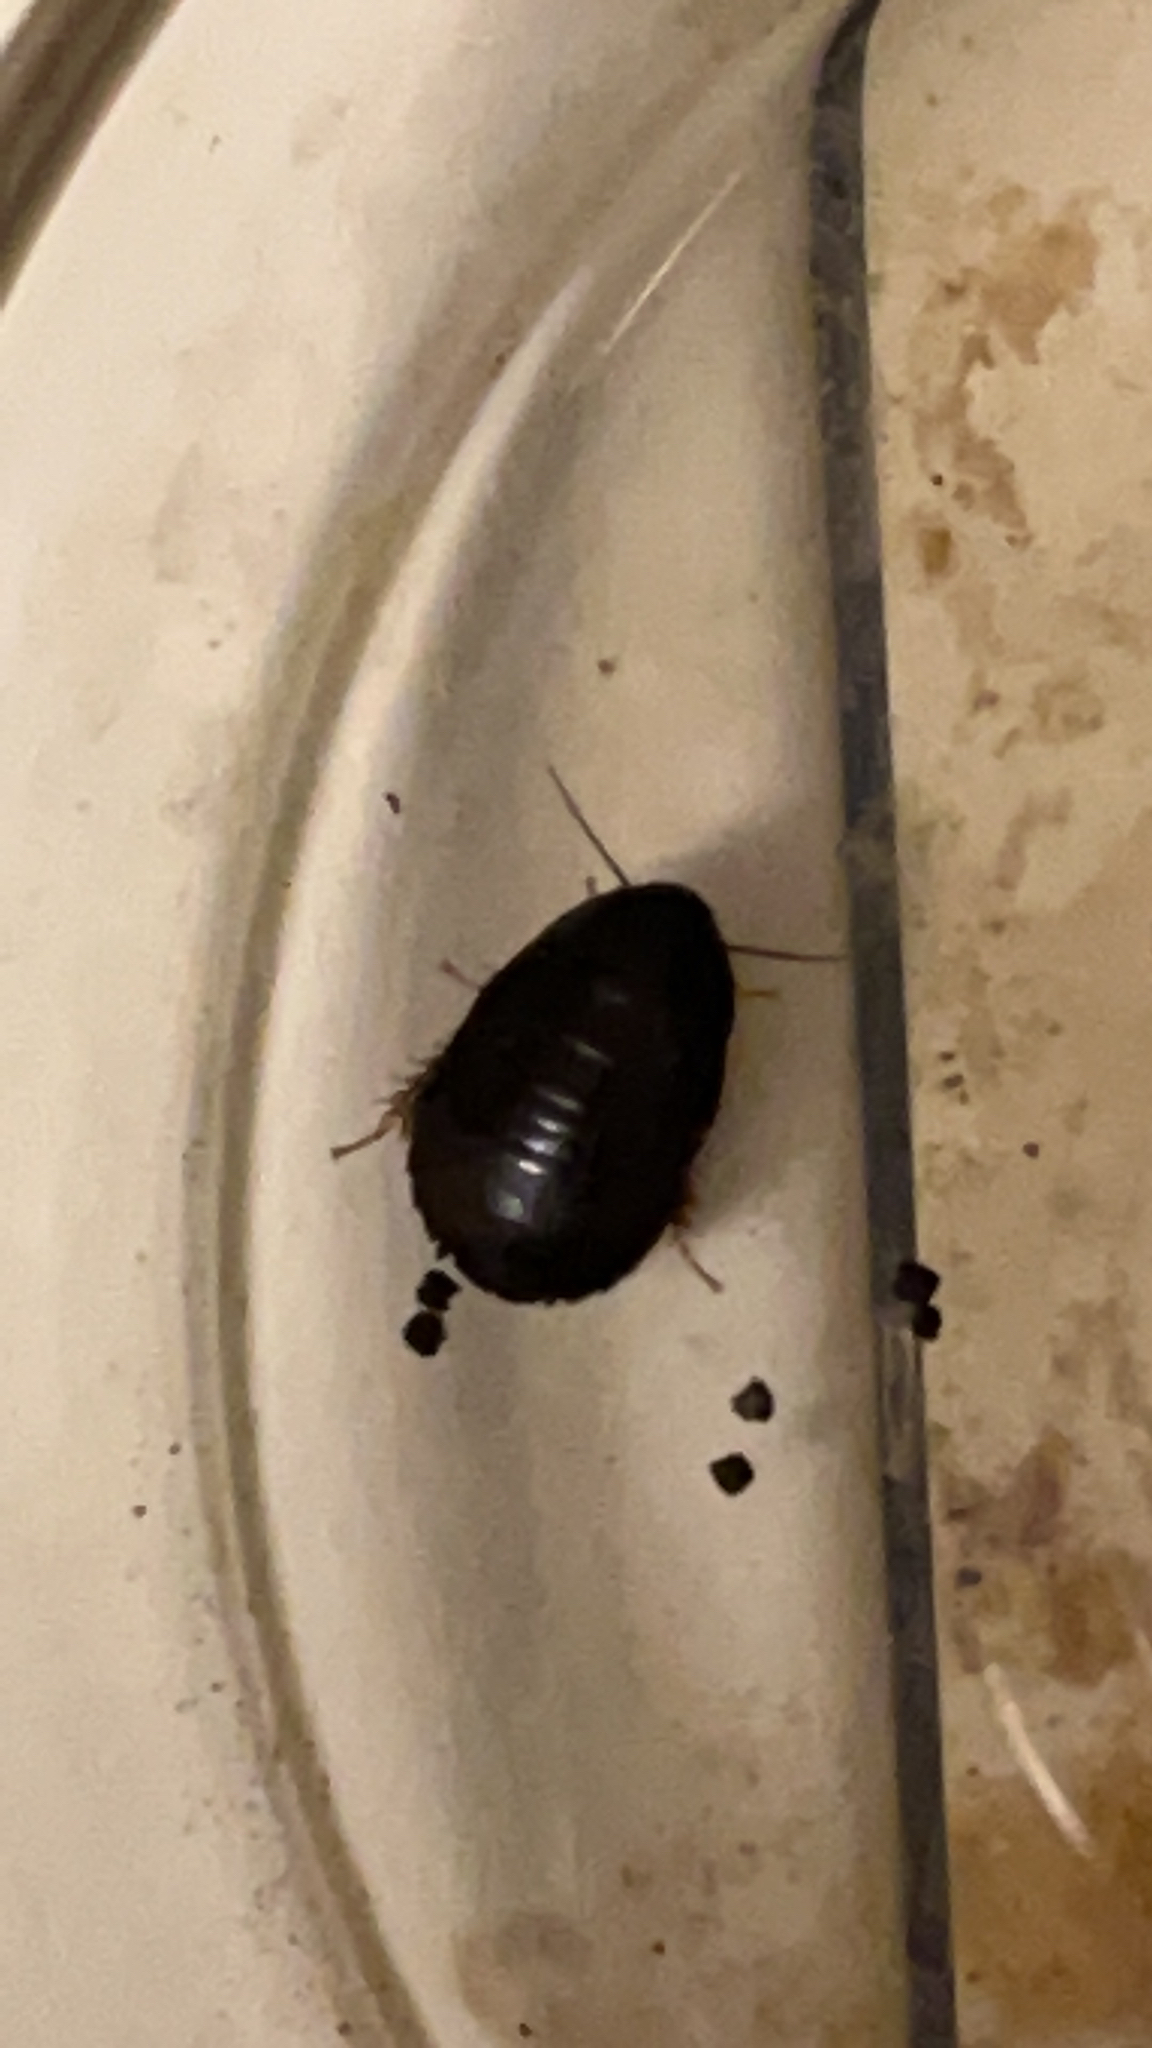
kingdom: Animalia
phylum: Arthropoda
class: Insecta
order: Blattodea
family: Blaberidae
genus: Pycnoscelus
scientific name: Pycnoscelus surinamensis
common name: Surinam cockroach
